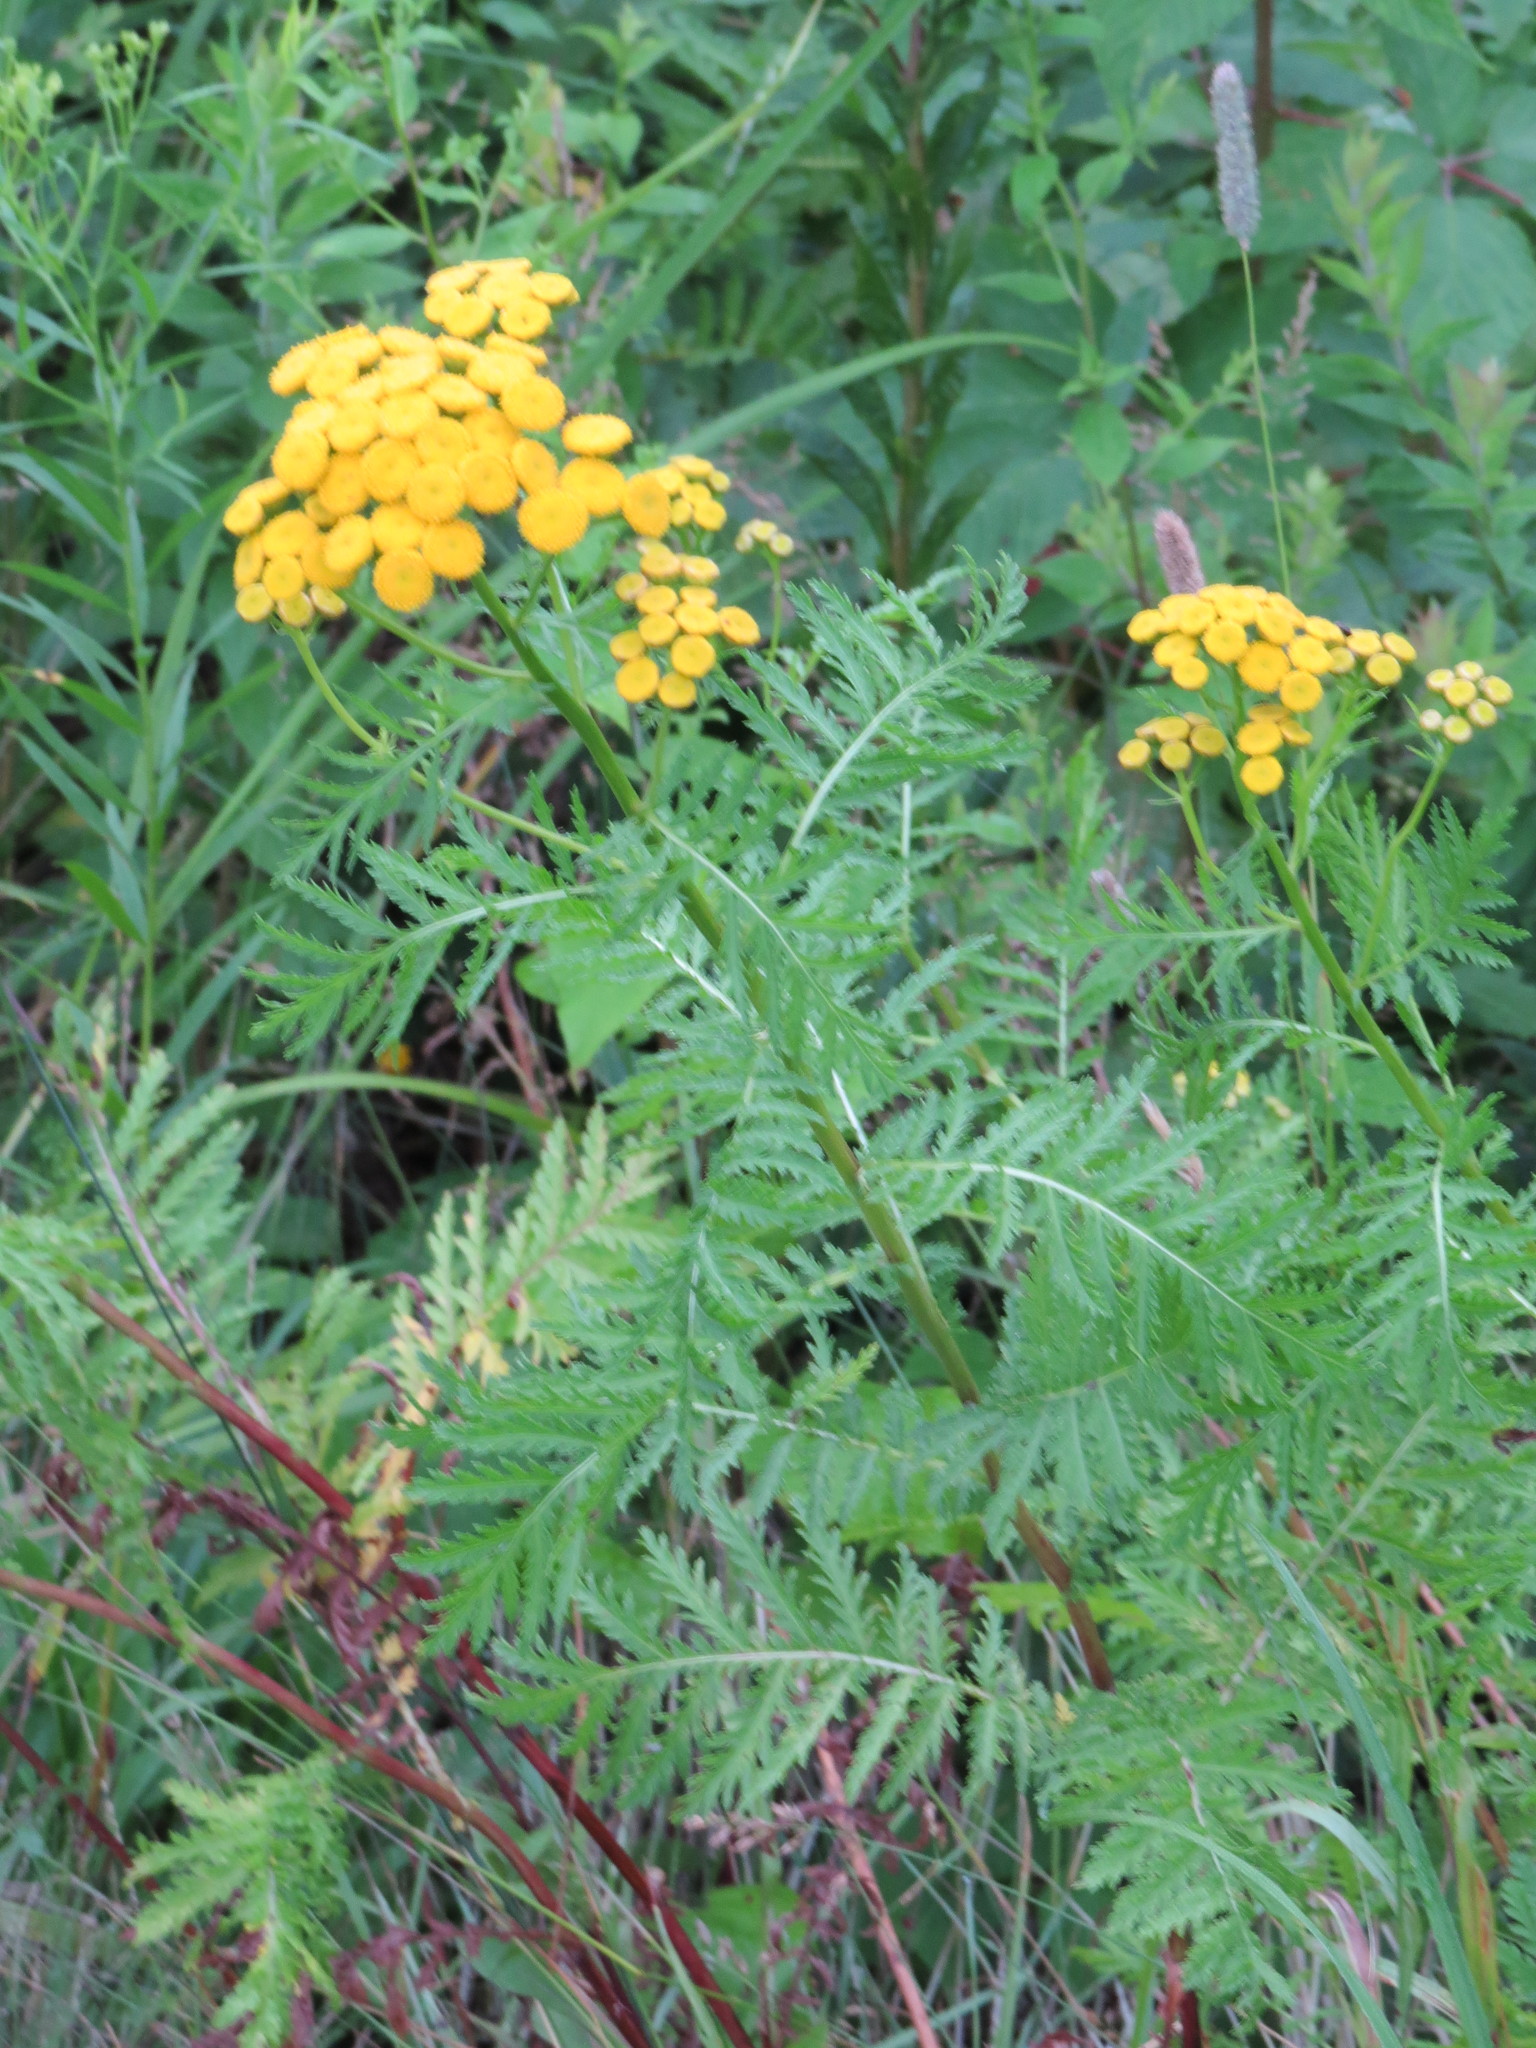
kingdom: Plantae
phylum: Tracheophyta
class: Magnoliopsida
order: Asterales
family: Asteraceae
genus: Tanacetum
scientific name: Tanacetum vulgare
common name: Common tansy
